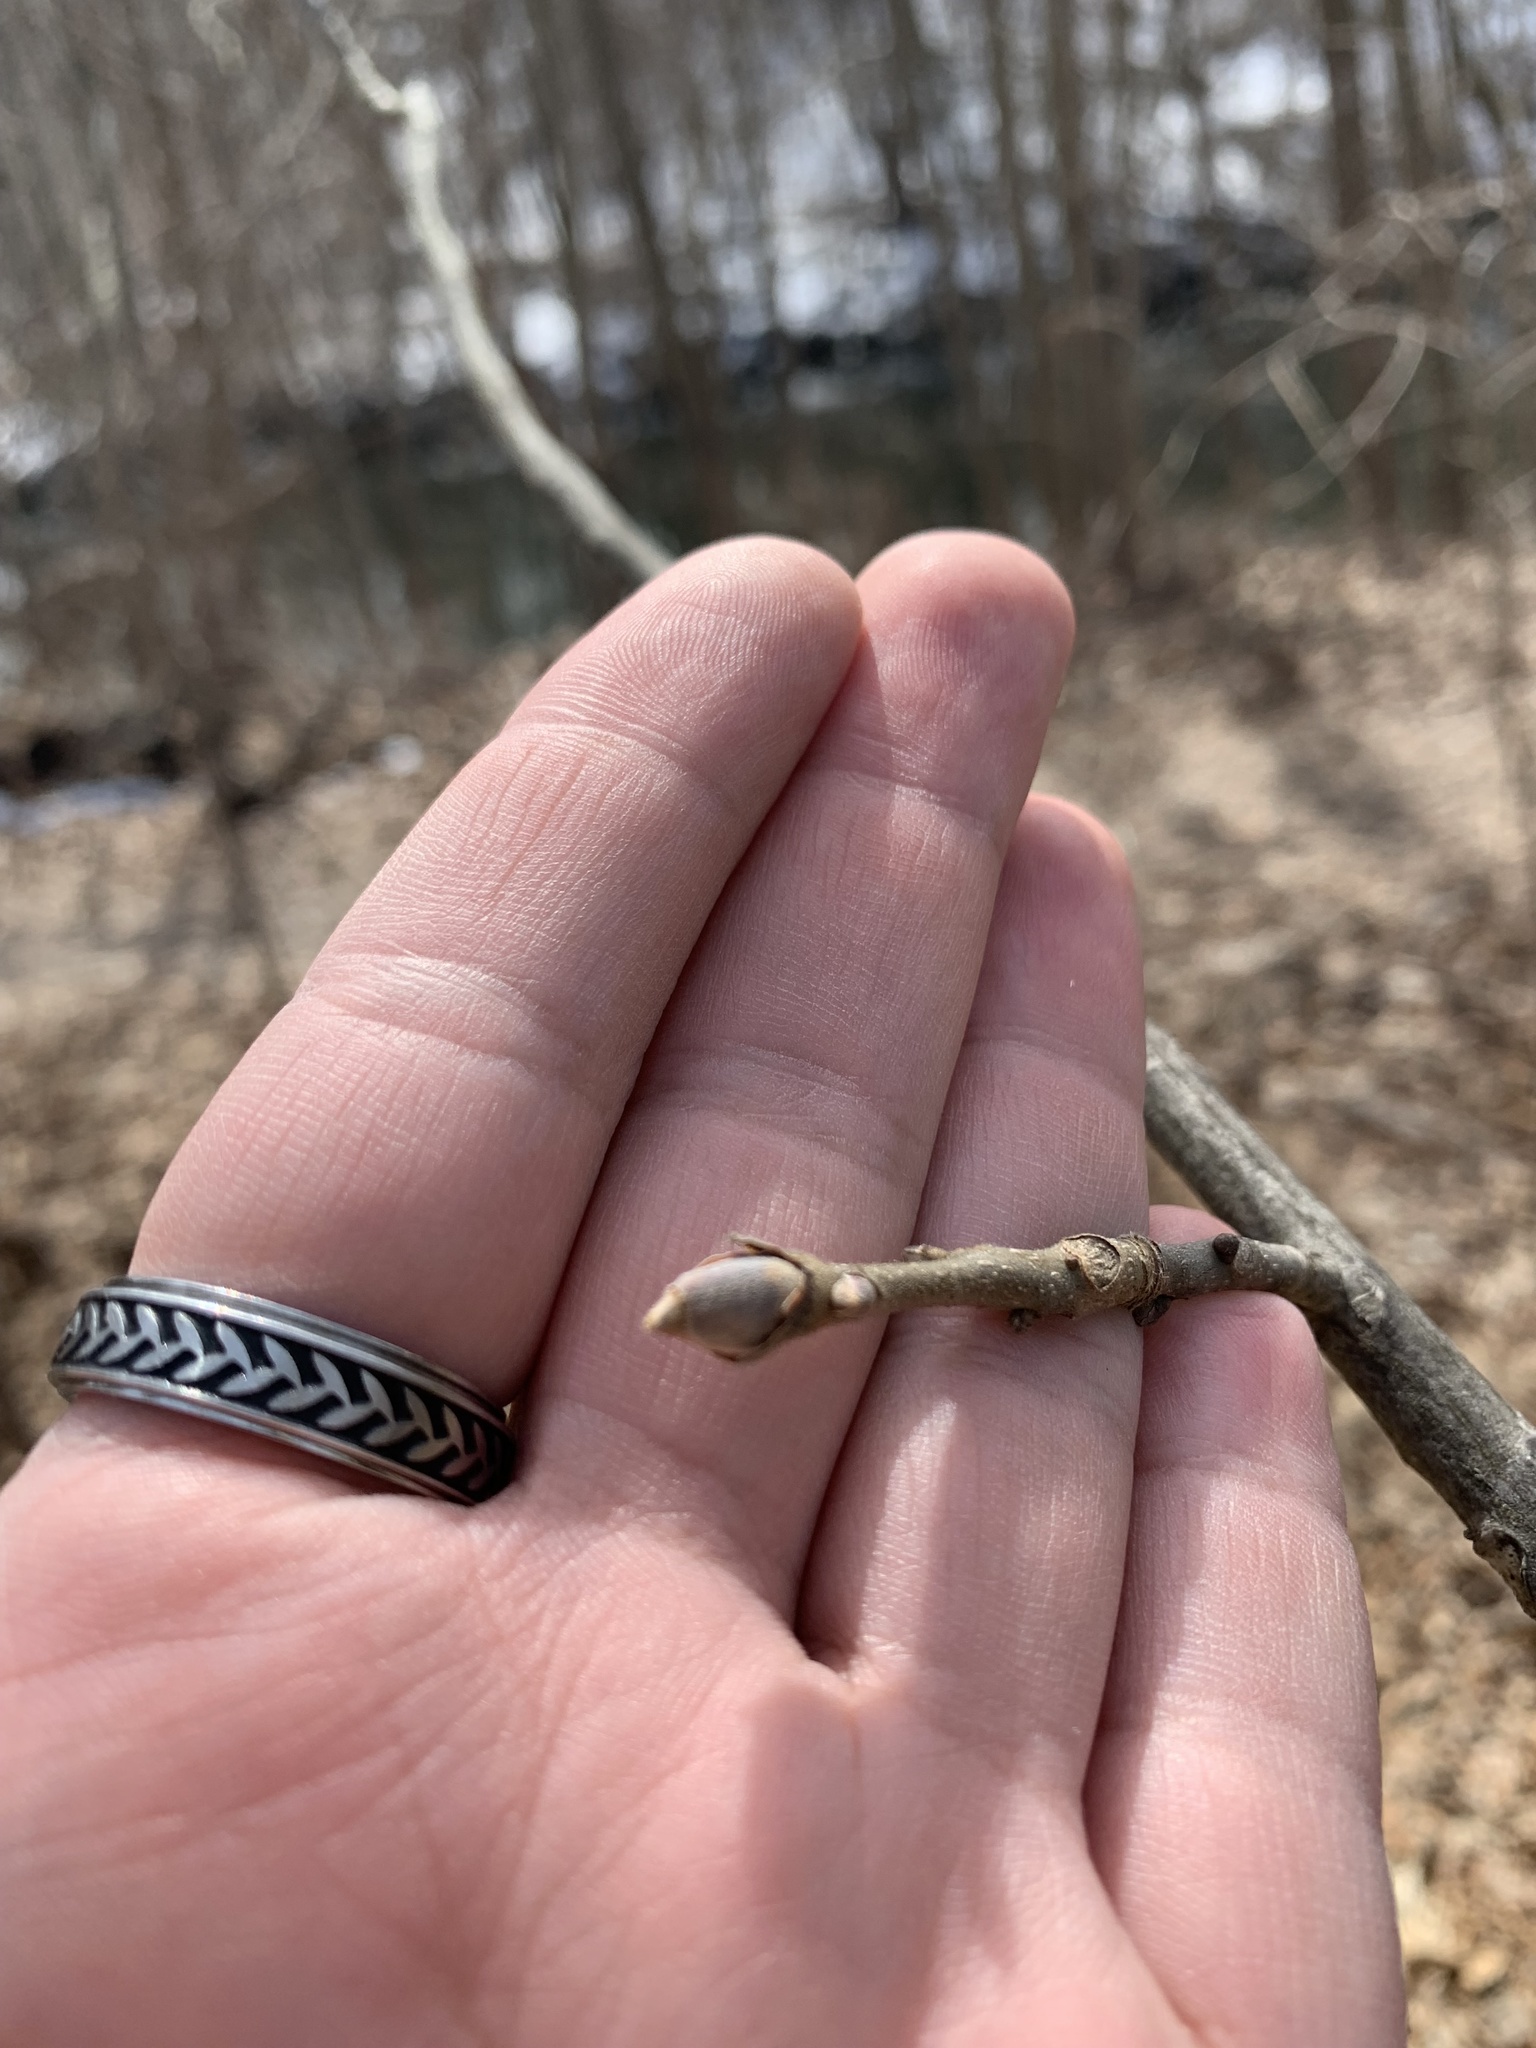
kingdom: Plantae
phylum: Tracheophyta
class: Magnoliopsida
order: Fagales
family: Juglandaceae
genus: Carya
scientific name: Carya ovata
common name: Shagbark hickory
